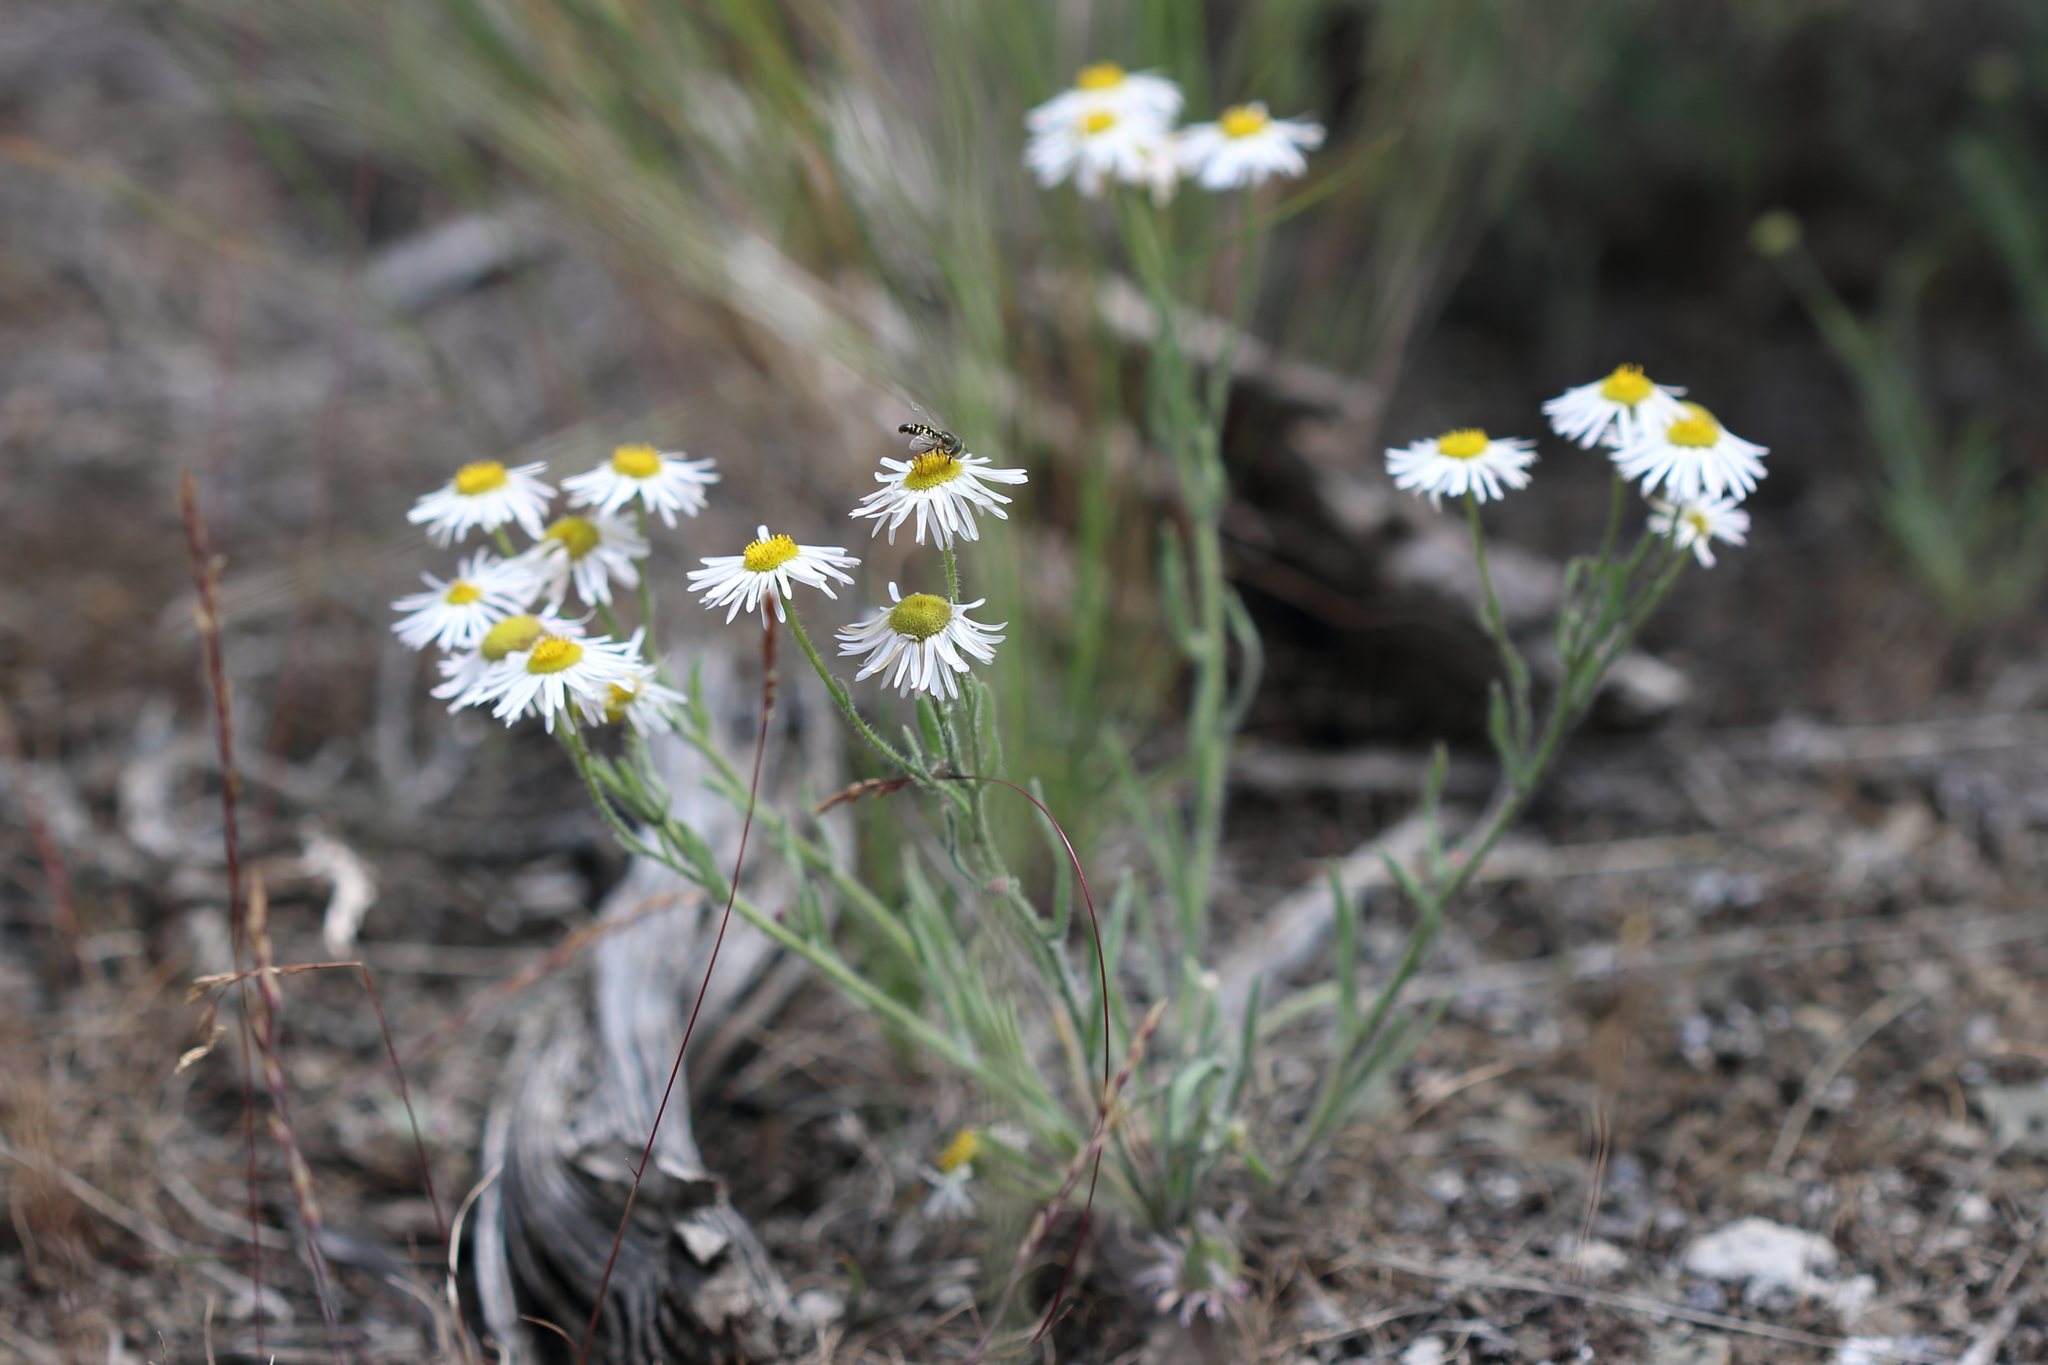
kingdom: Animalia
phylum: Arthropoda
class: Insecta
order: Diptera
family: Syrphidae
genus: Eupeodes
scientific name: Eupeodes volucris
